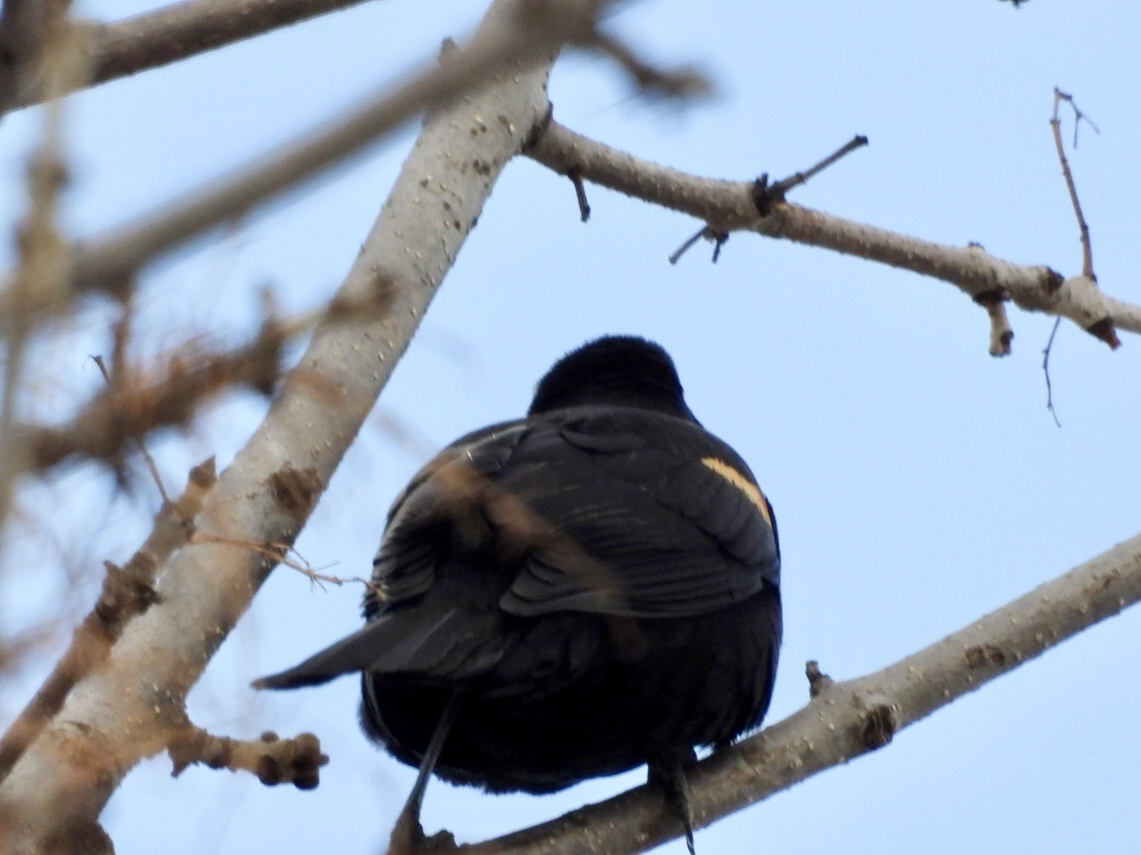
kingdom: Animalia
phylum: Chordata
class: Aves
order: Passeriformes
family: Icteridae
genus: Agelaius
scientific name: Agelaius phoeniceus
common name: Red-winged blackbird
